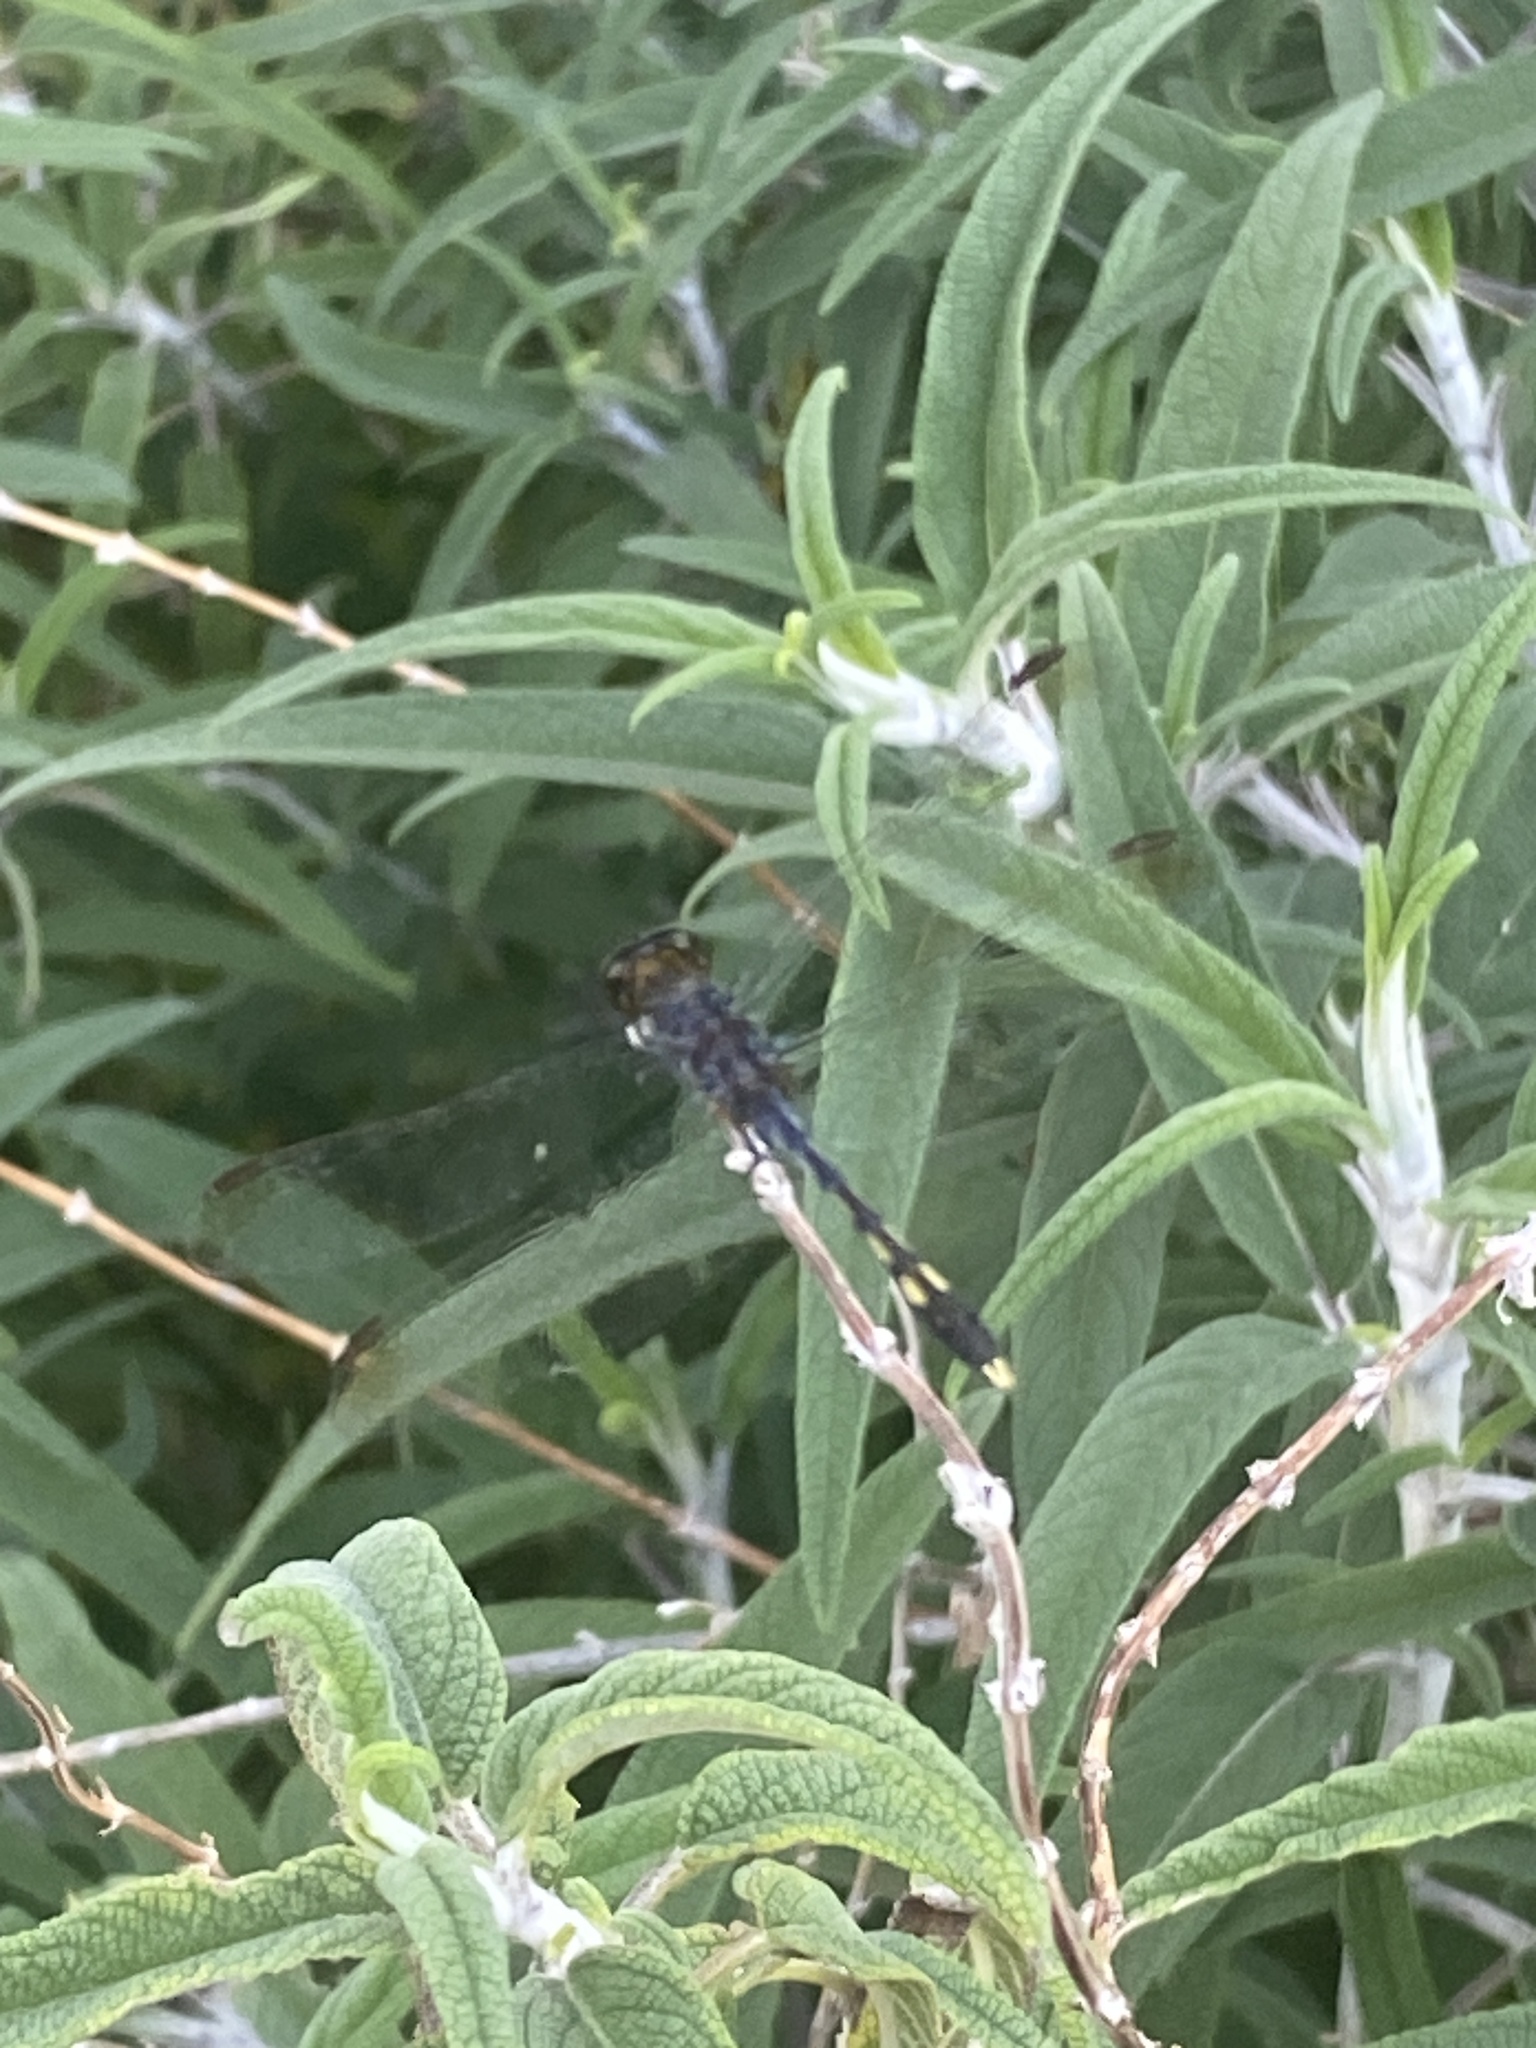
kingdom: Animalia
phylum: Arthropoda
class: Insecta
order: Odonata
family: Libellulidae
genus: Erythrodiplax
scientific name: Erythrodiplax nigricans
